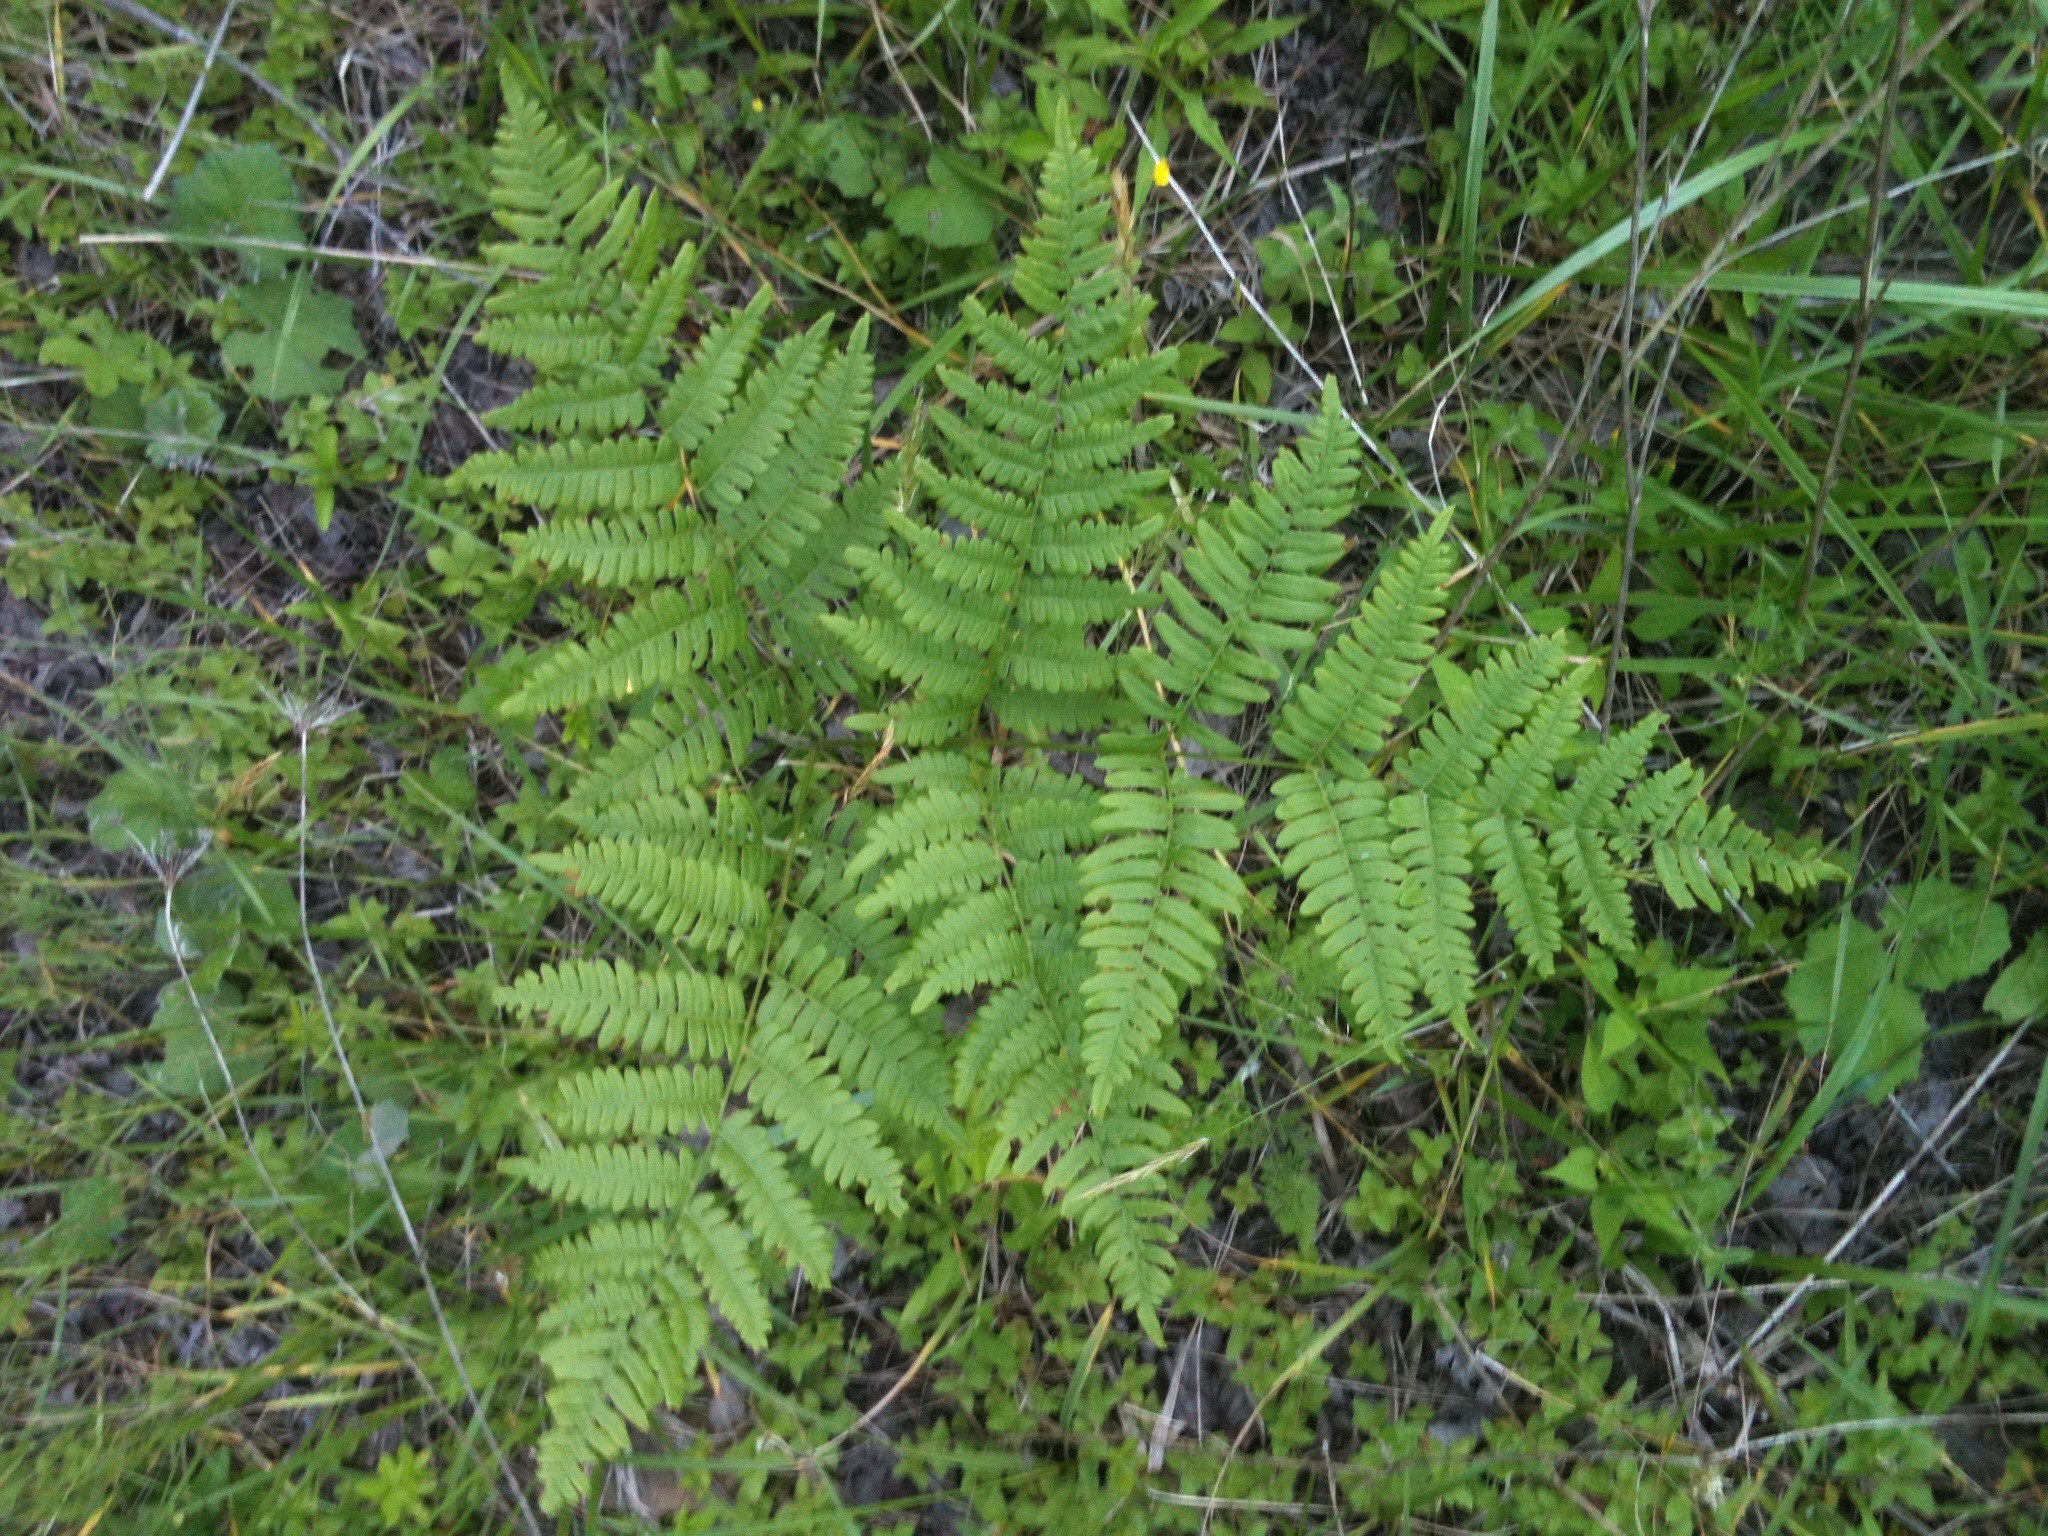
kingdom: Plantae
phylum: Tracheophyta
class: Polypodiopsida
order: Polypodiales
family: Dennstaedtiaceae
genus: Pteridium
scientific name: Pteridium aquilinum
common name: Bracken
